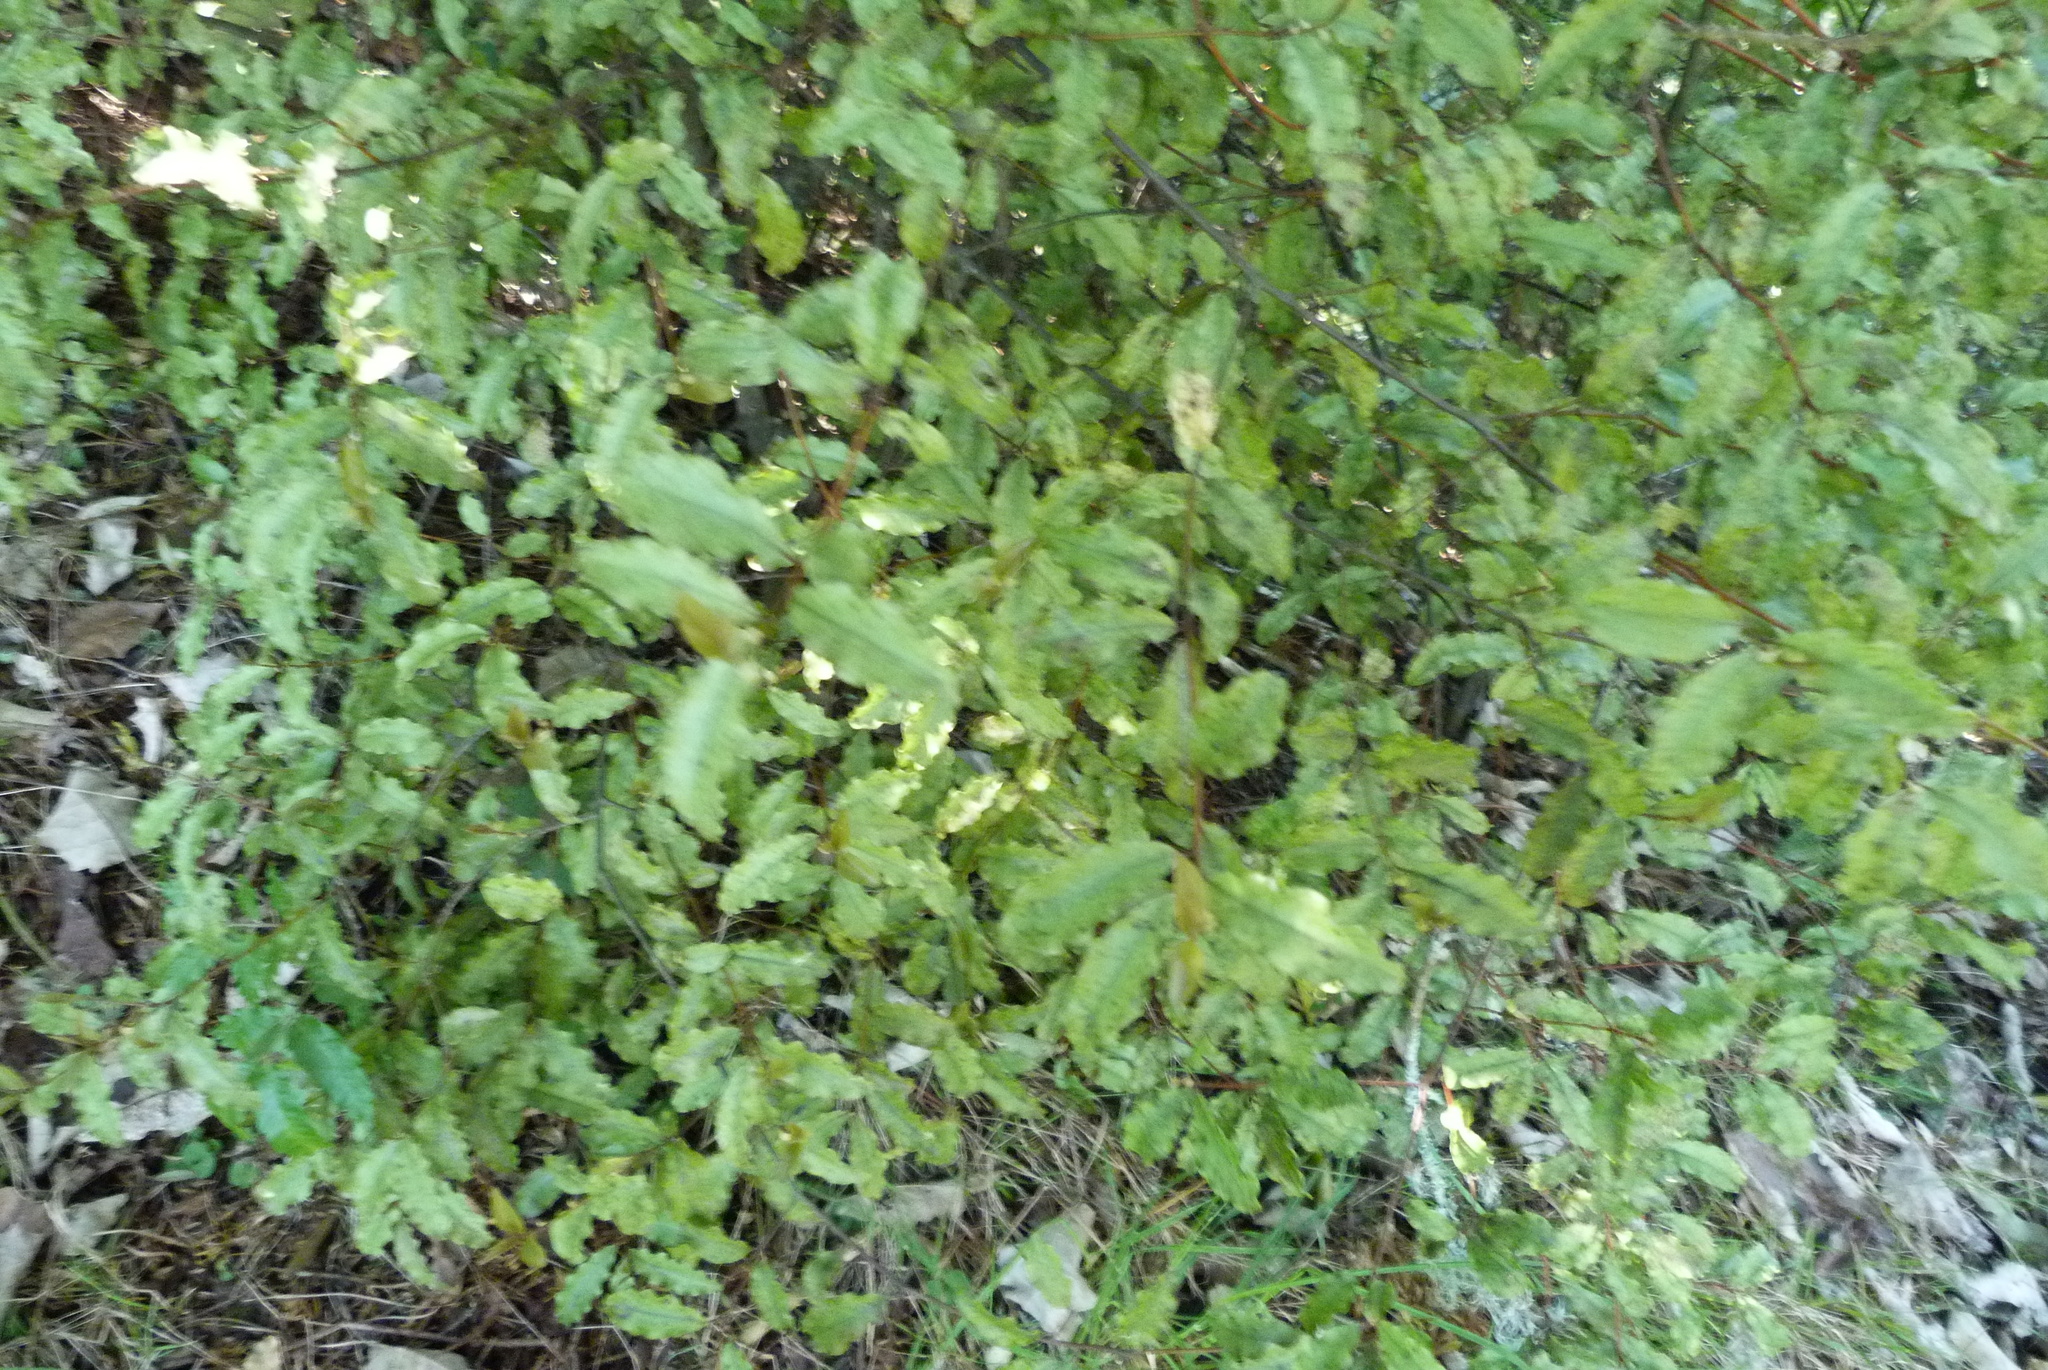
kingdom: Plantae
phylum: Tracheophyta
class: Magnoliopsida
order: Ericales
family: Primulaceae
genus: Myrsine
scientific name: Myrsine australis
